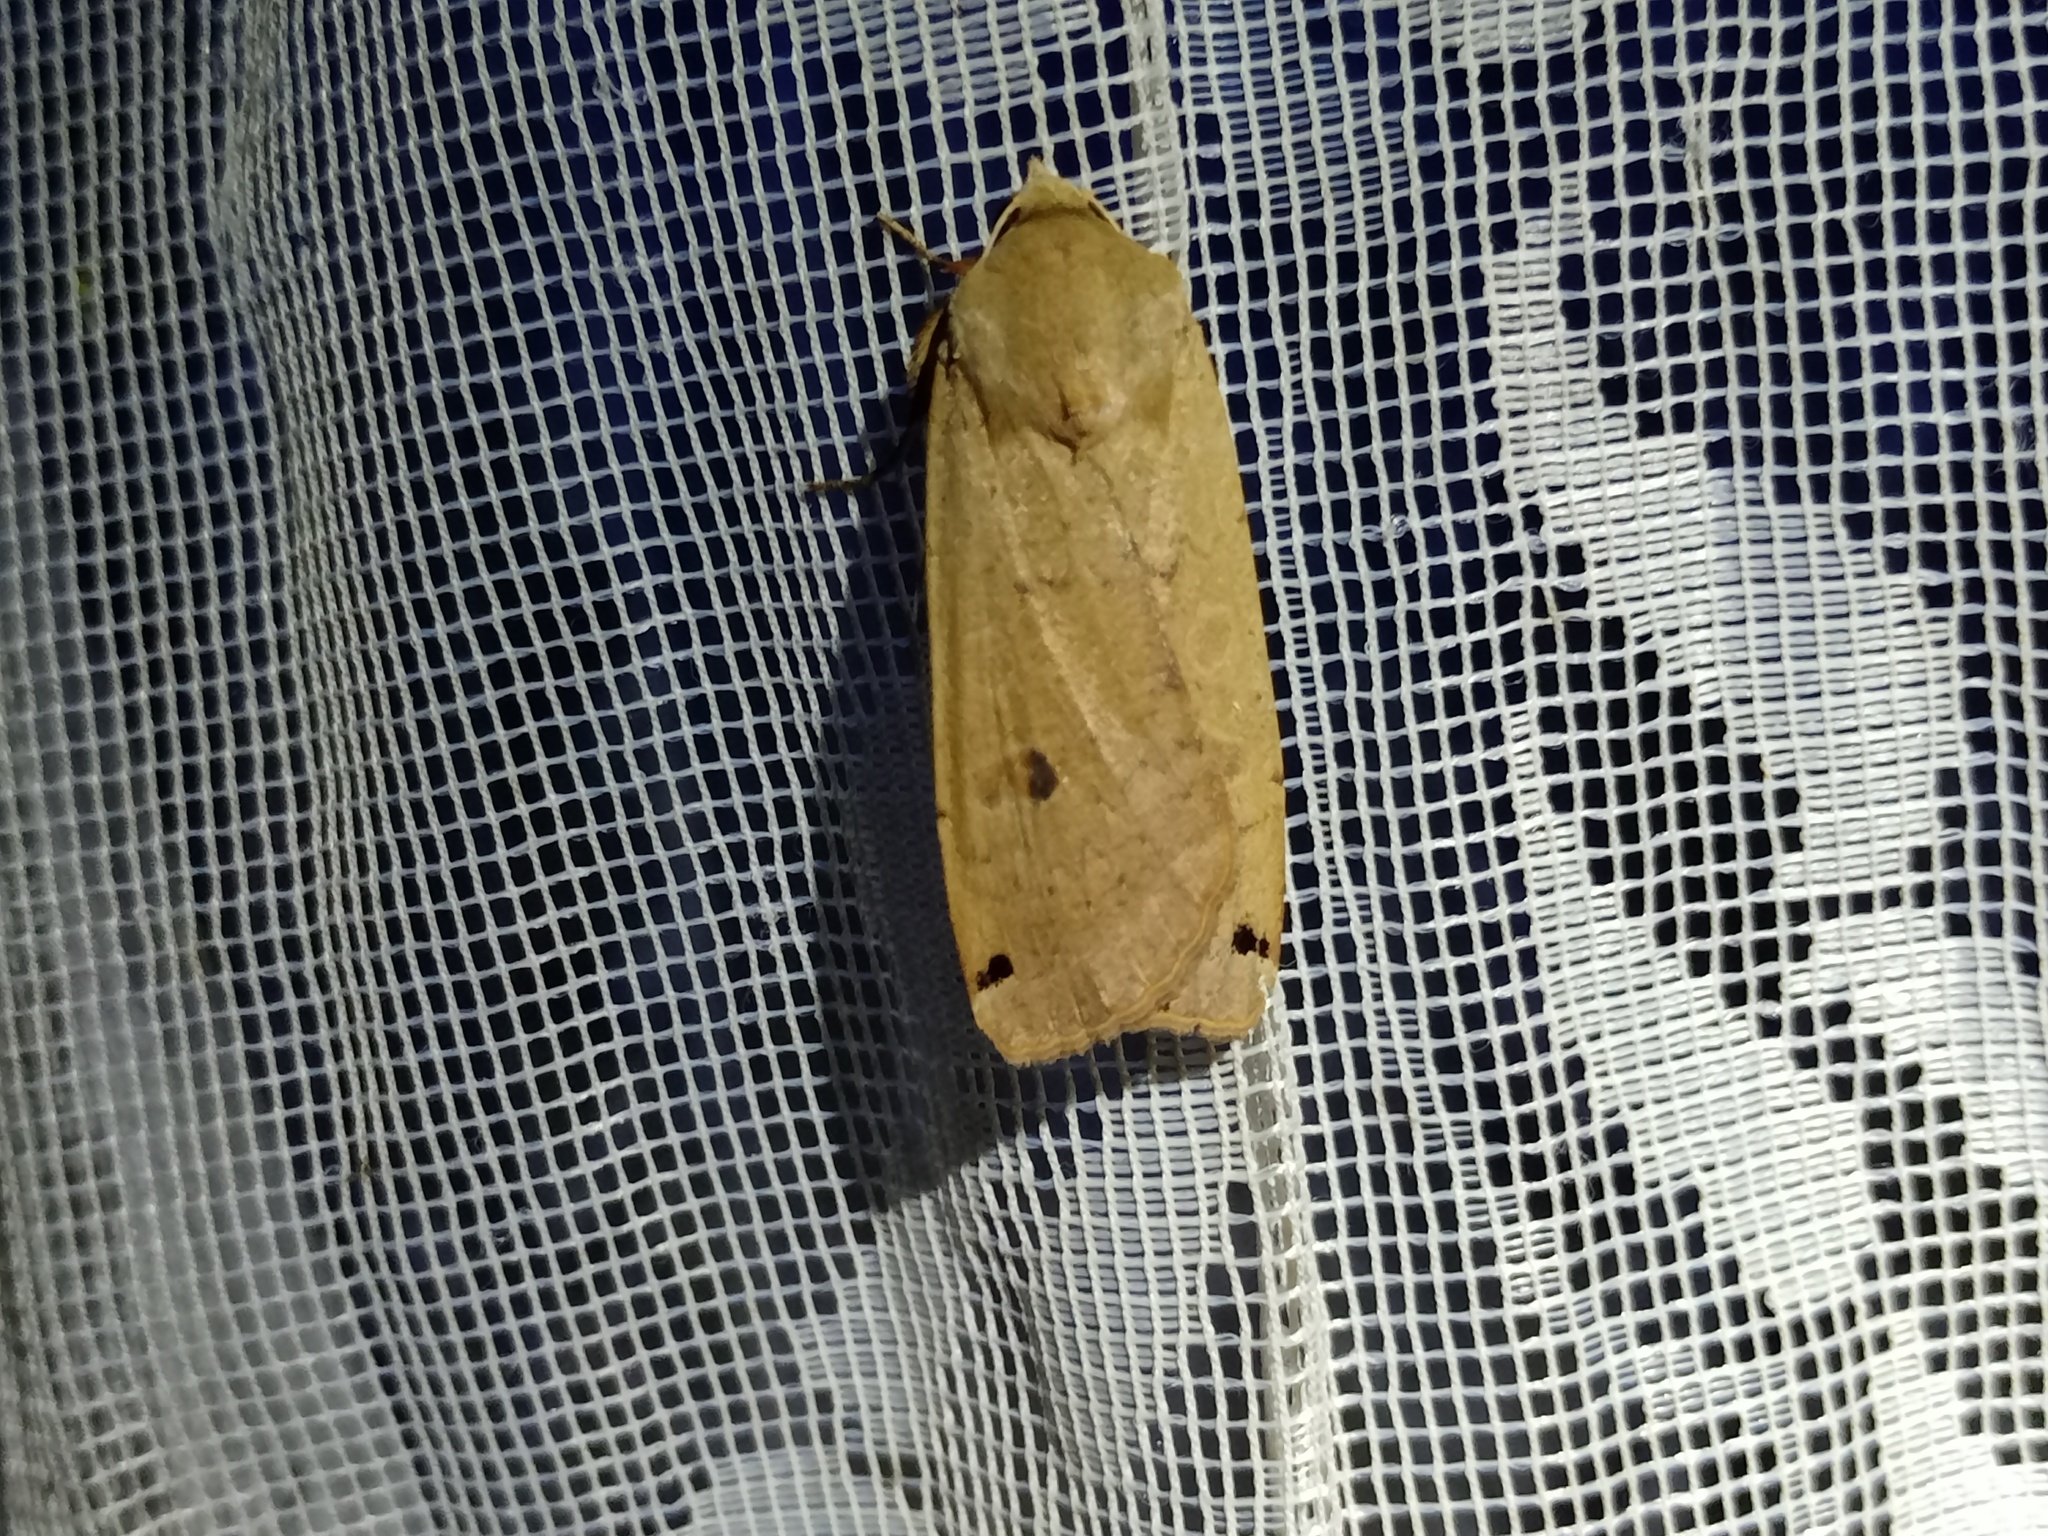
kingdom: Animalia
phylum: Arthropoda
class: Insecta
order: Lepidoptera
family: Noctuidae
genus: Noctua
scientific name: Noctua pronuba
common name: Large yellow underwing
